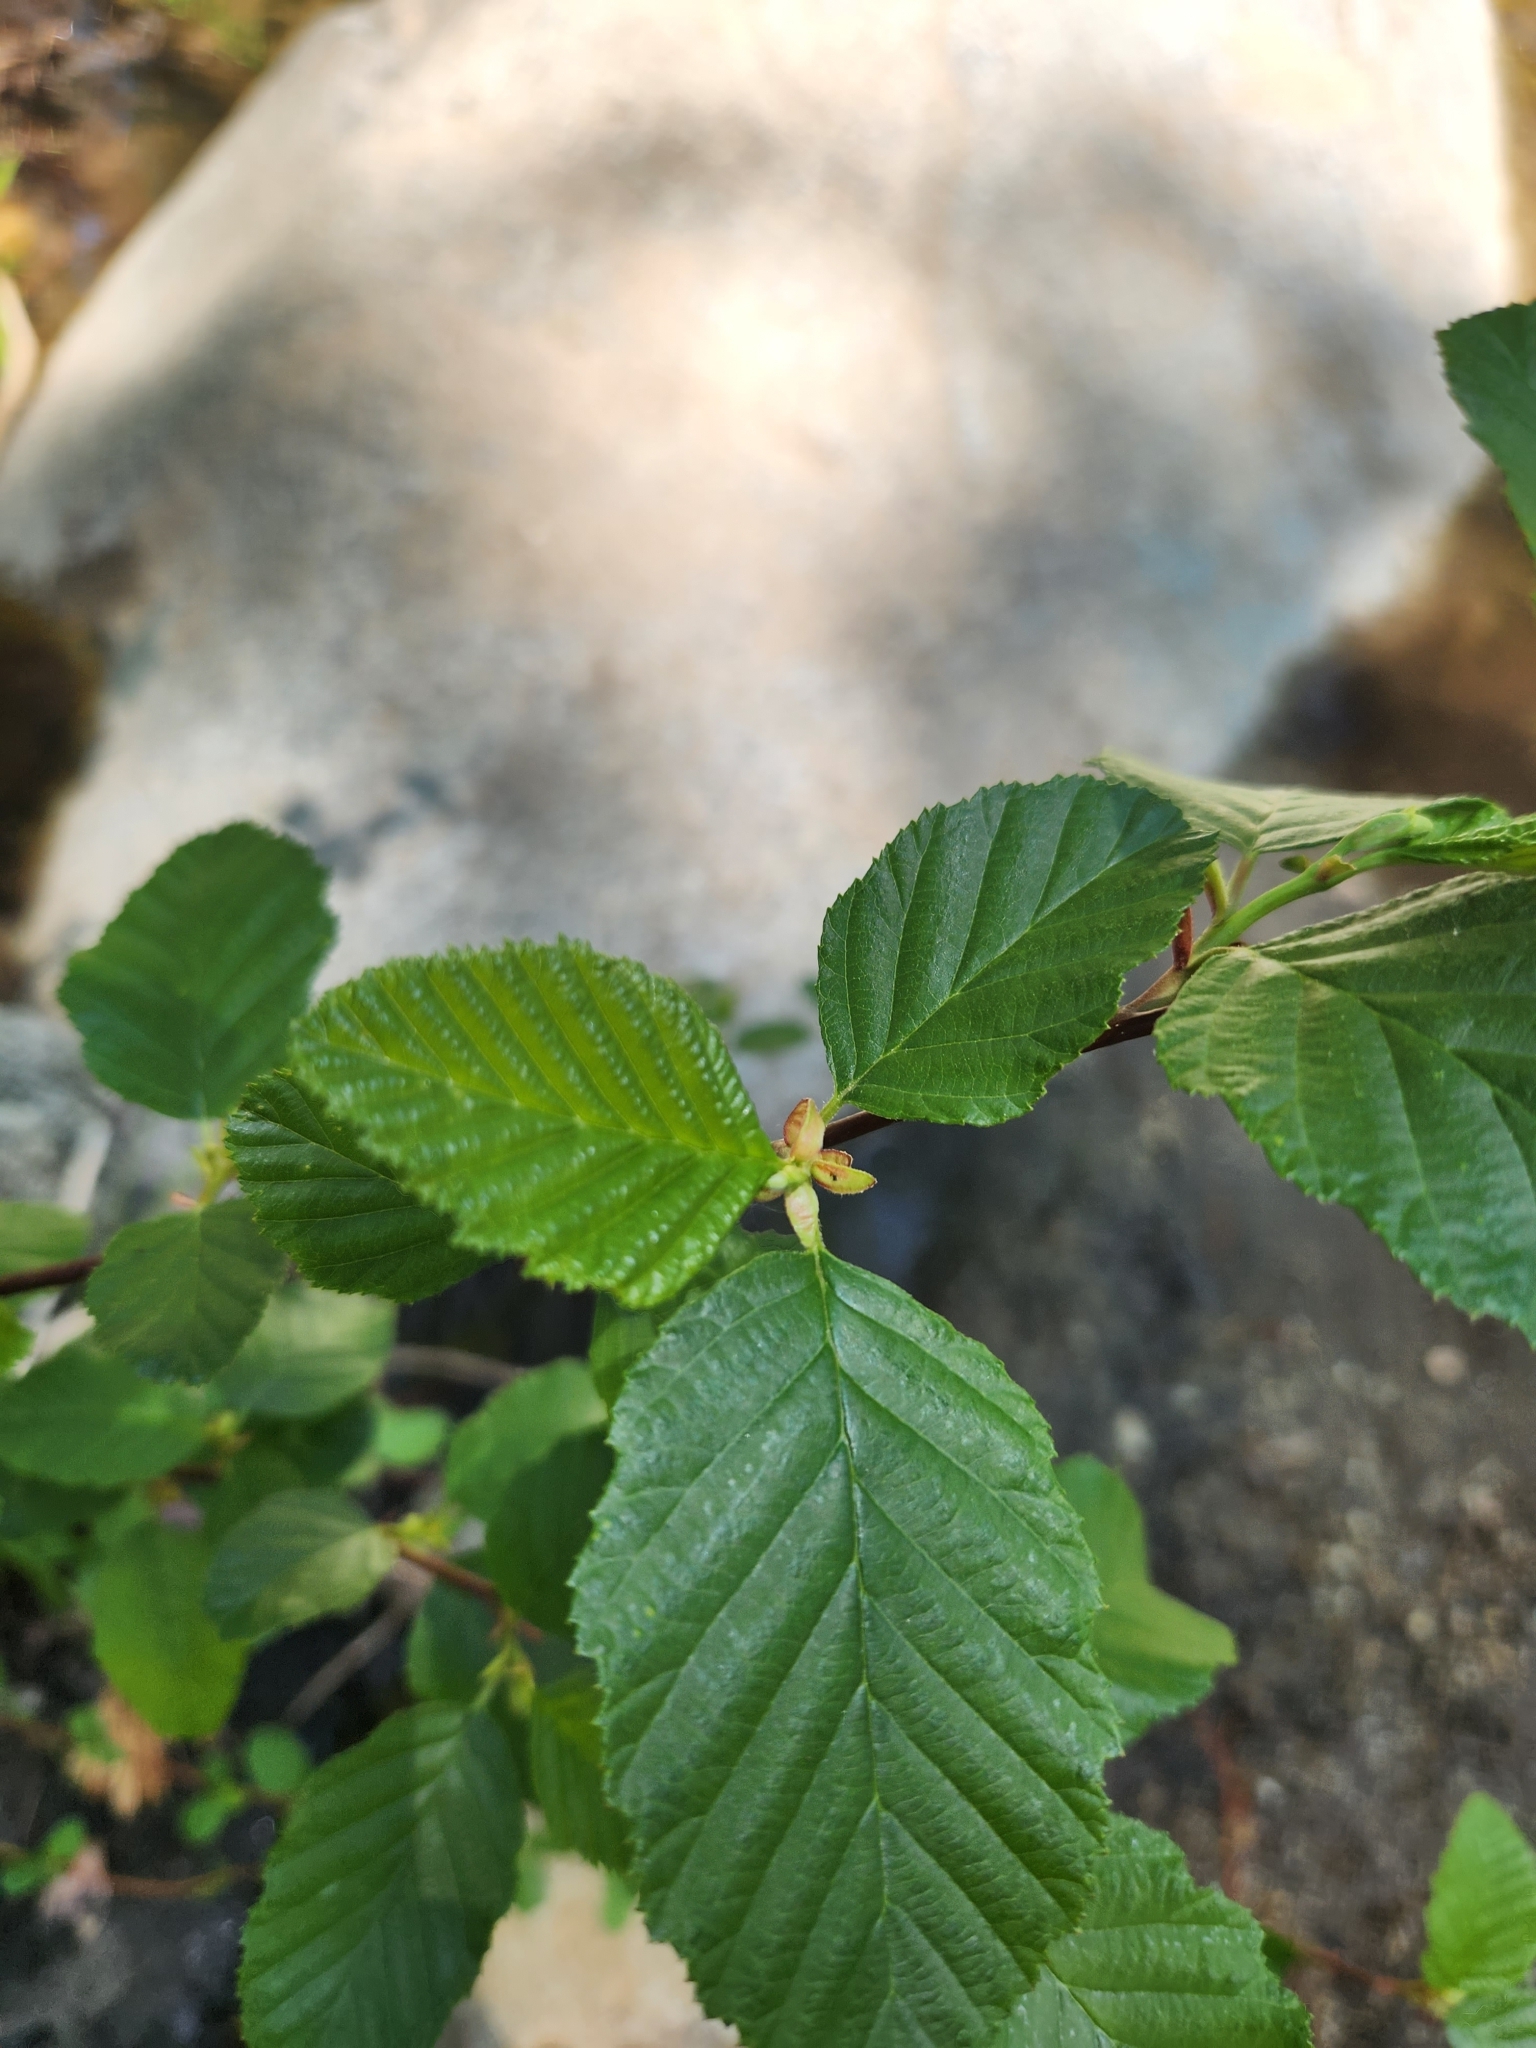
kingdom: Plantae
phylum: Tracheophyta
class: Magnoliopsida
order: Fagales
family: Betulaceae
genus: Alnus
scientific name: Alnus rhombifolia
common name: California alder
